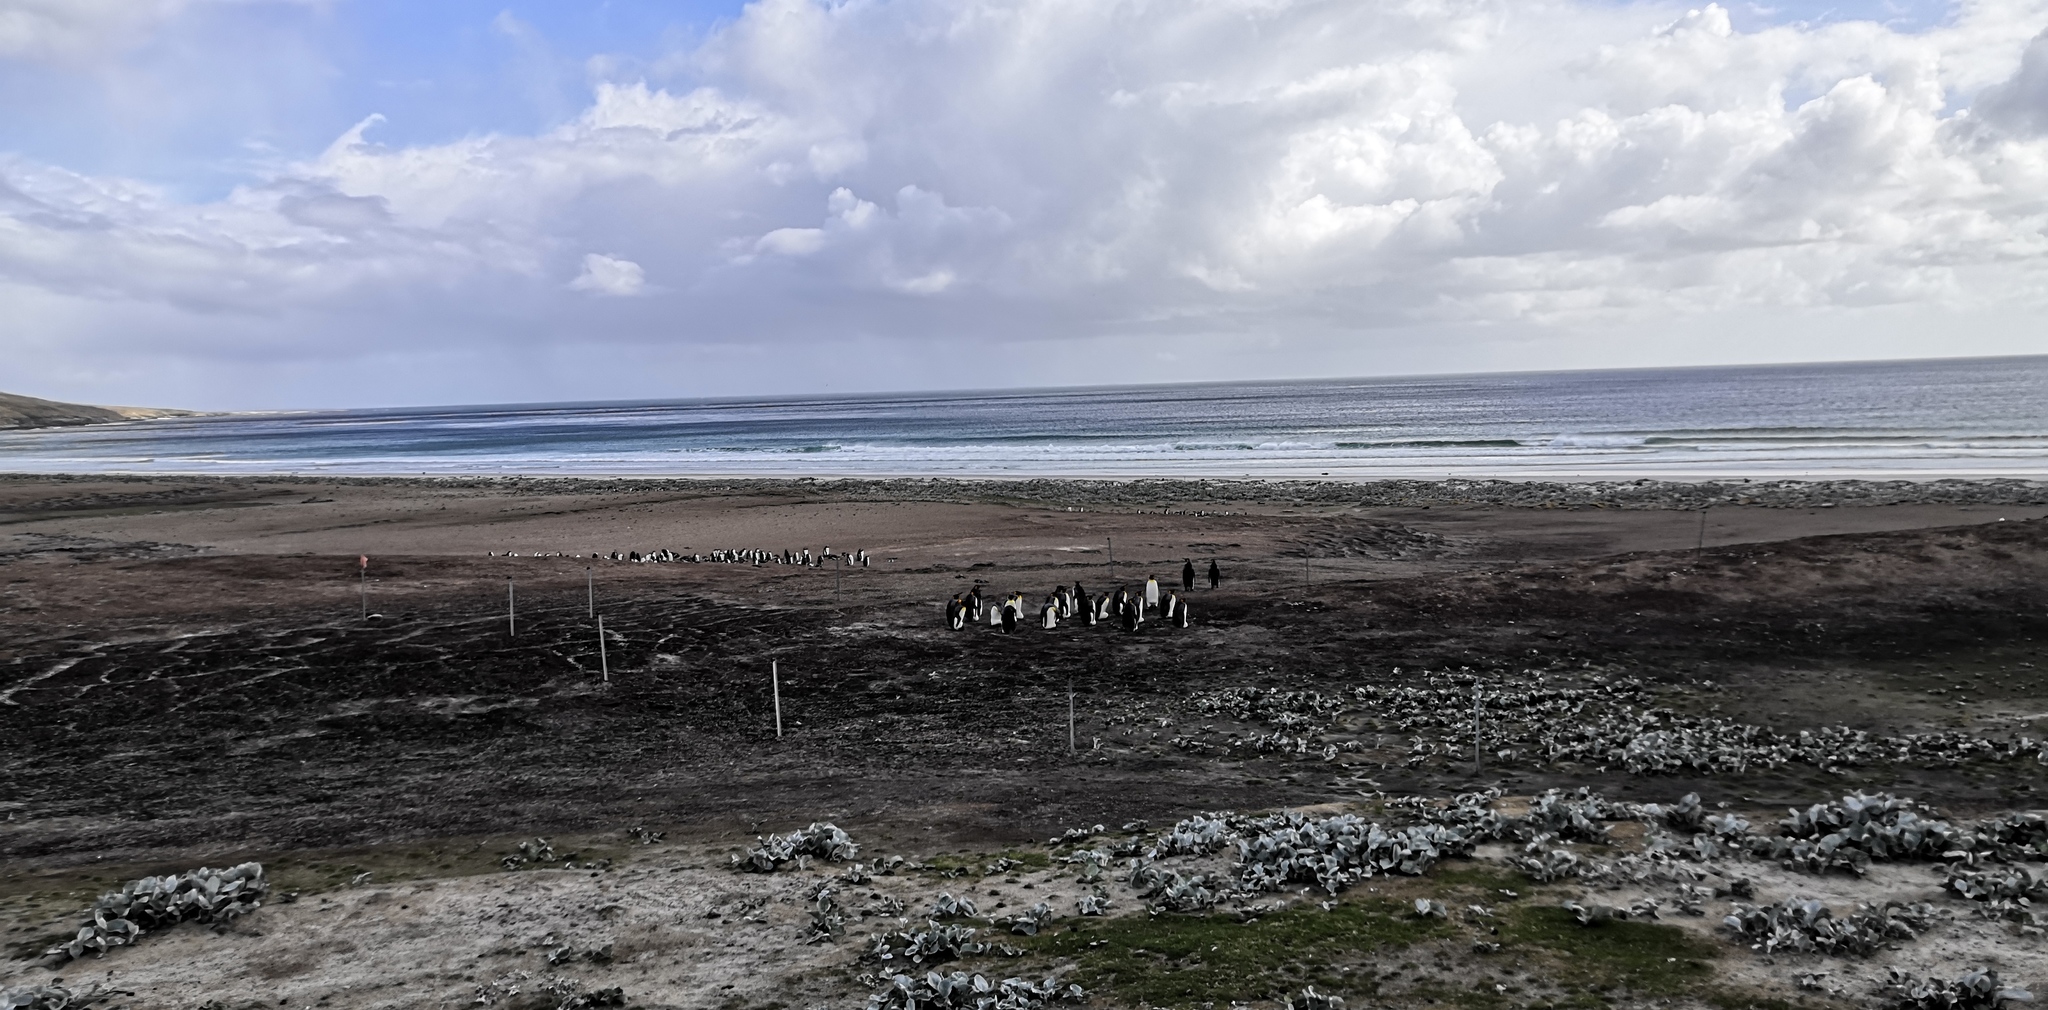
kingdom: Animalia
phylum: Chordata
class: Aves
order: Sphenisciformes
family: Spheniscidae
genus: Aptenodytes
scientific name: Aptenodytes patagonicus
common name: King penguin
